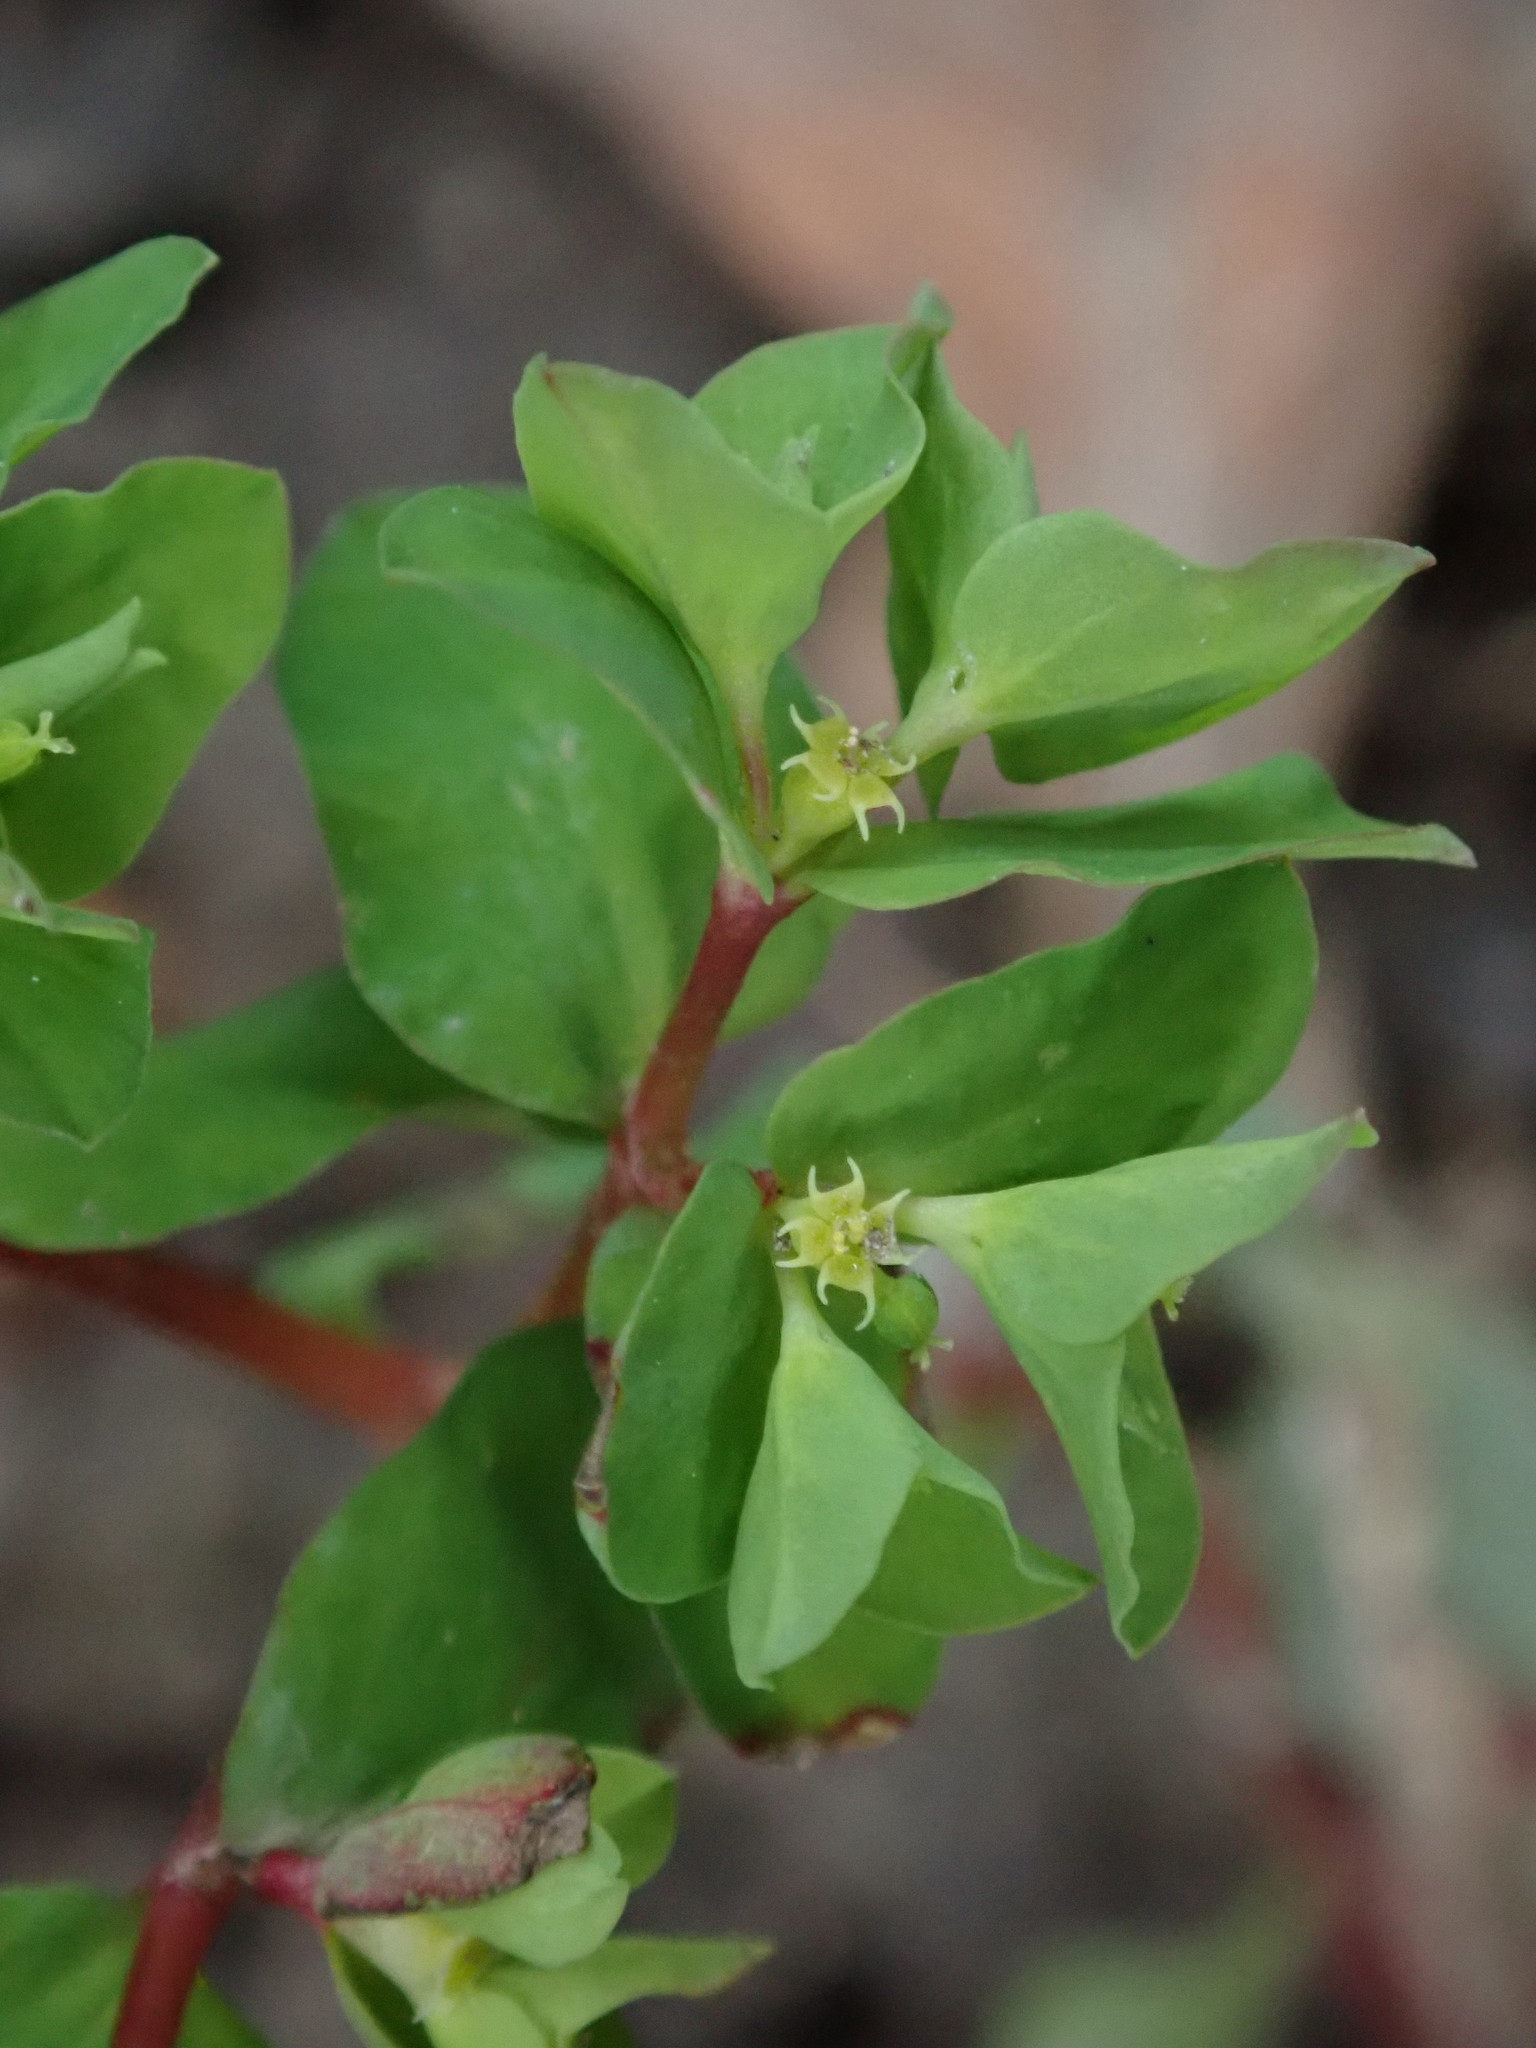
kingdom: Plantae
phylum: Tracheophyta
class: Magnoliopsida
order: Malpighiales
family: Euphorbiaceae
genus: Euphorbia
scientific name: Euphorbia peplus
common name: Petty spurge
